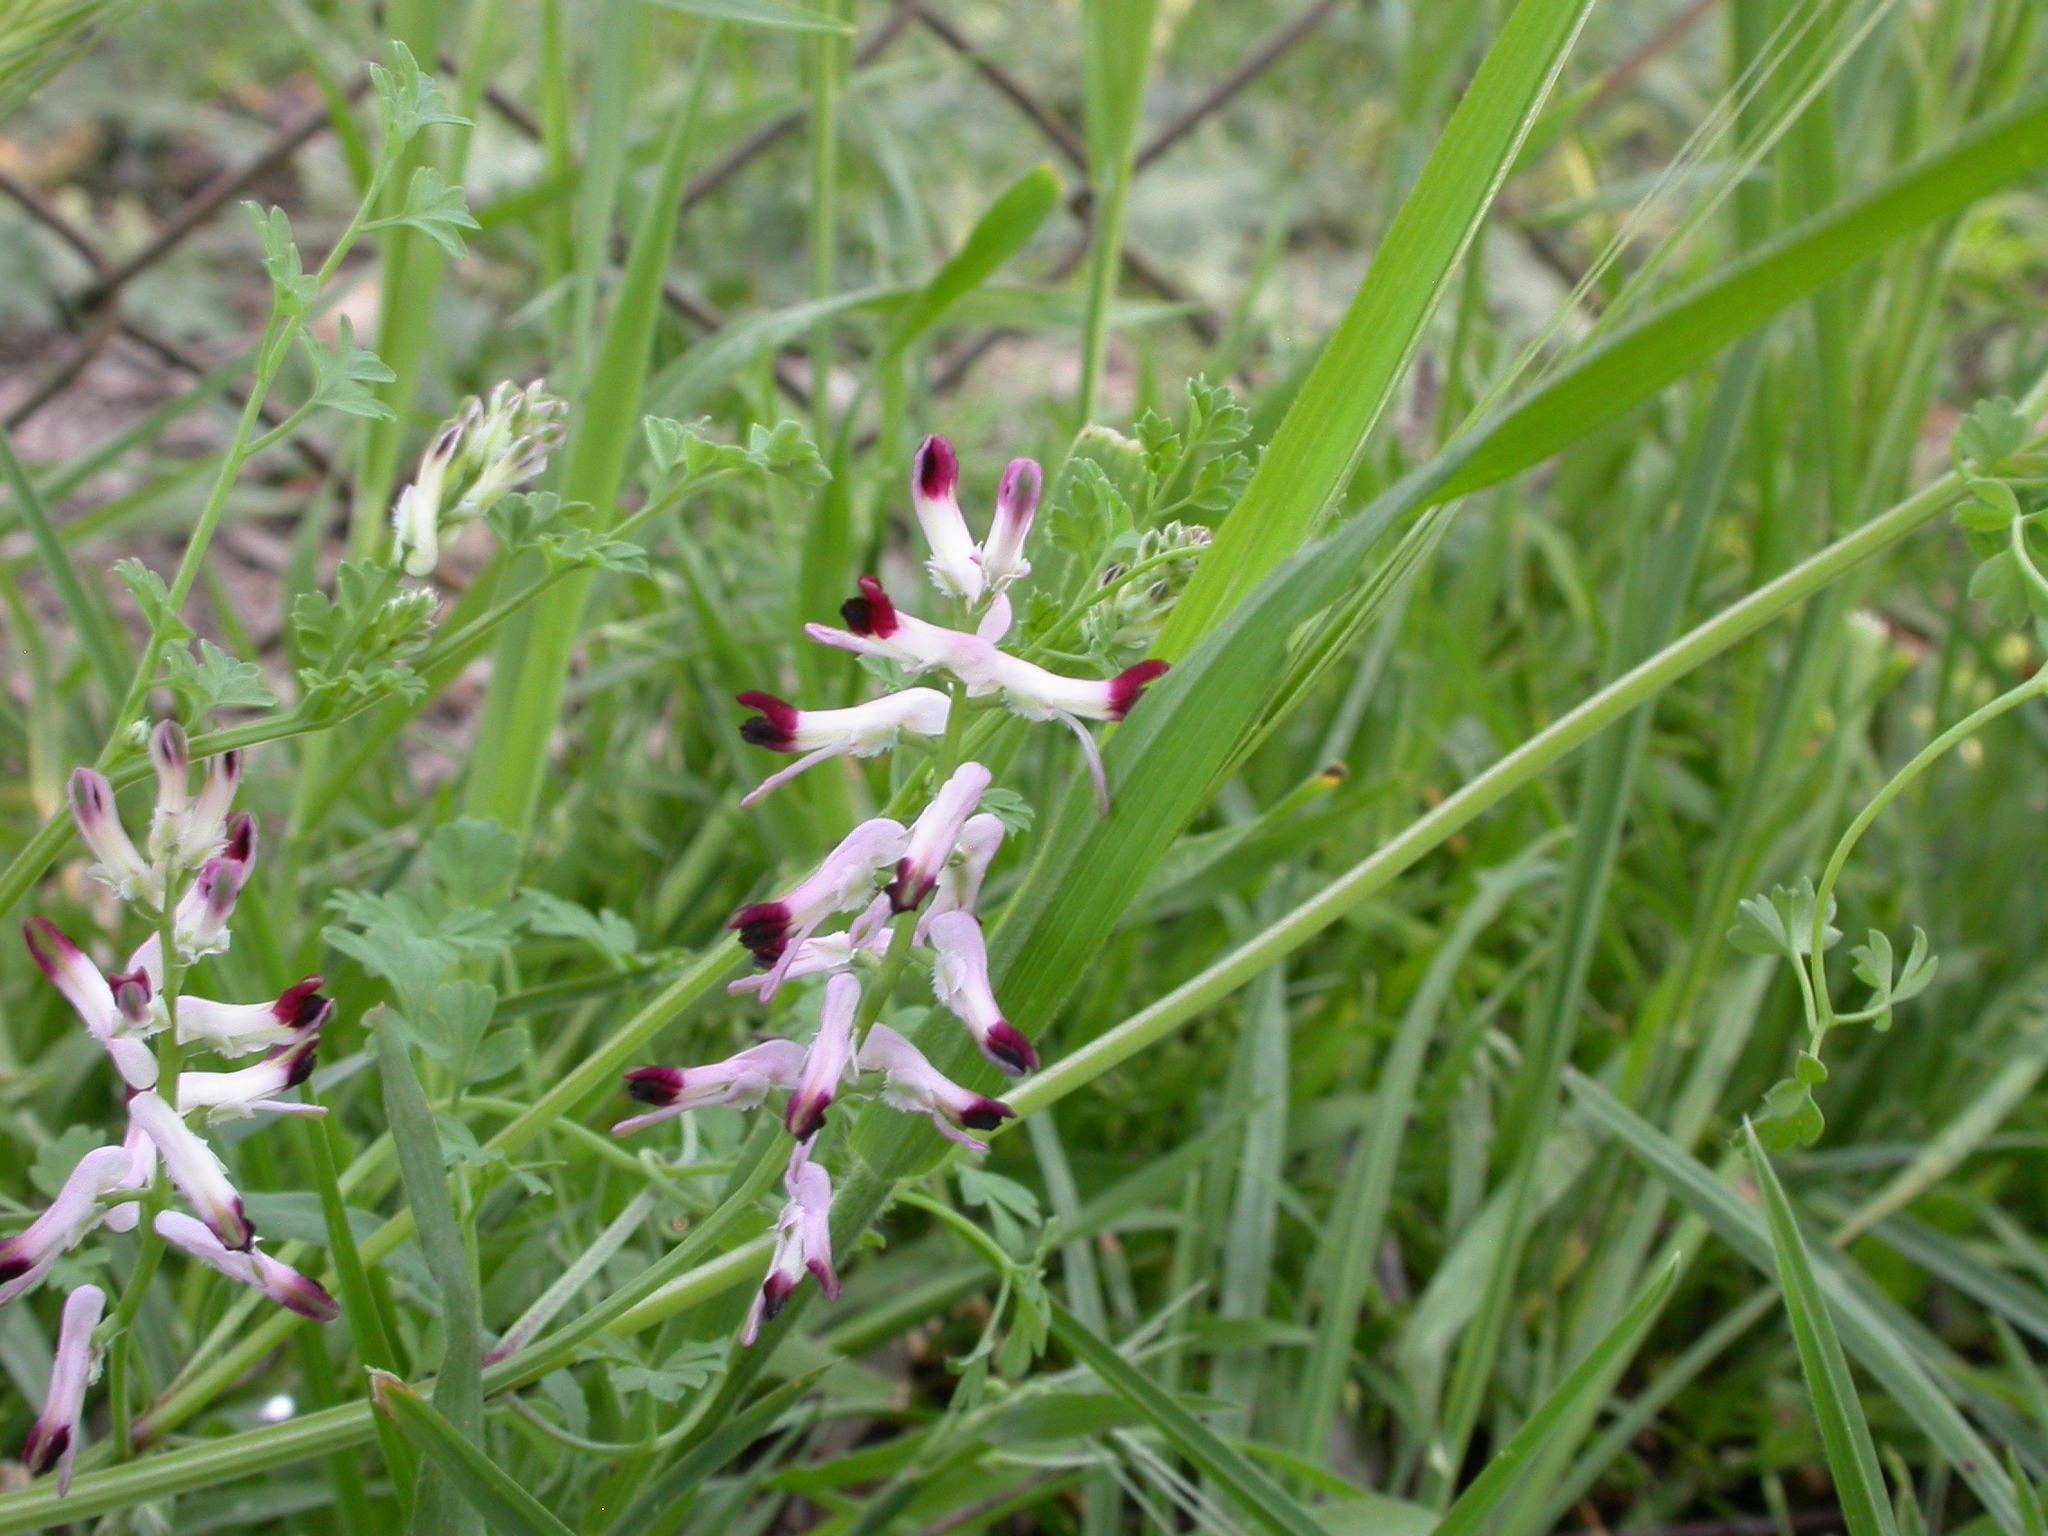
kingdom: Plantae
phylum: Tracheophyta
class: Magnoliopsida
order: Ranunculales
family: Papaveraceae
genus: Fumaria
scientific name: Fumaria muralis
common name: Common ramping-fumitory
